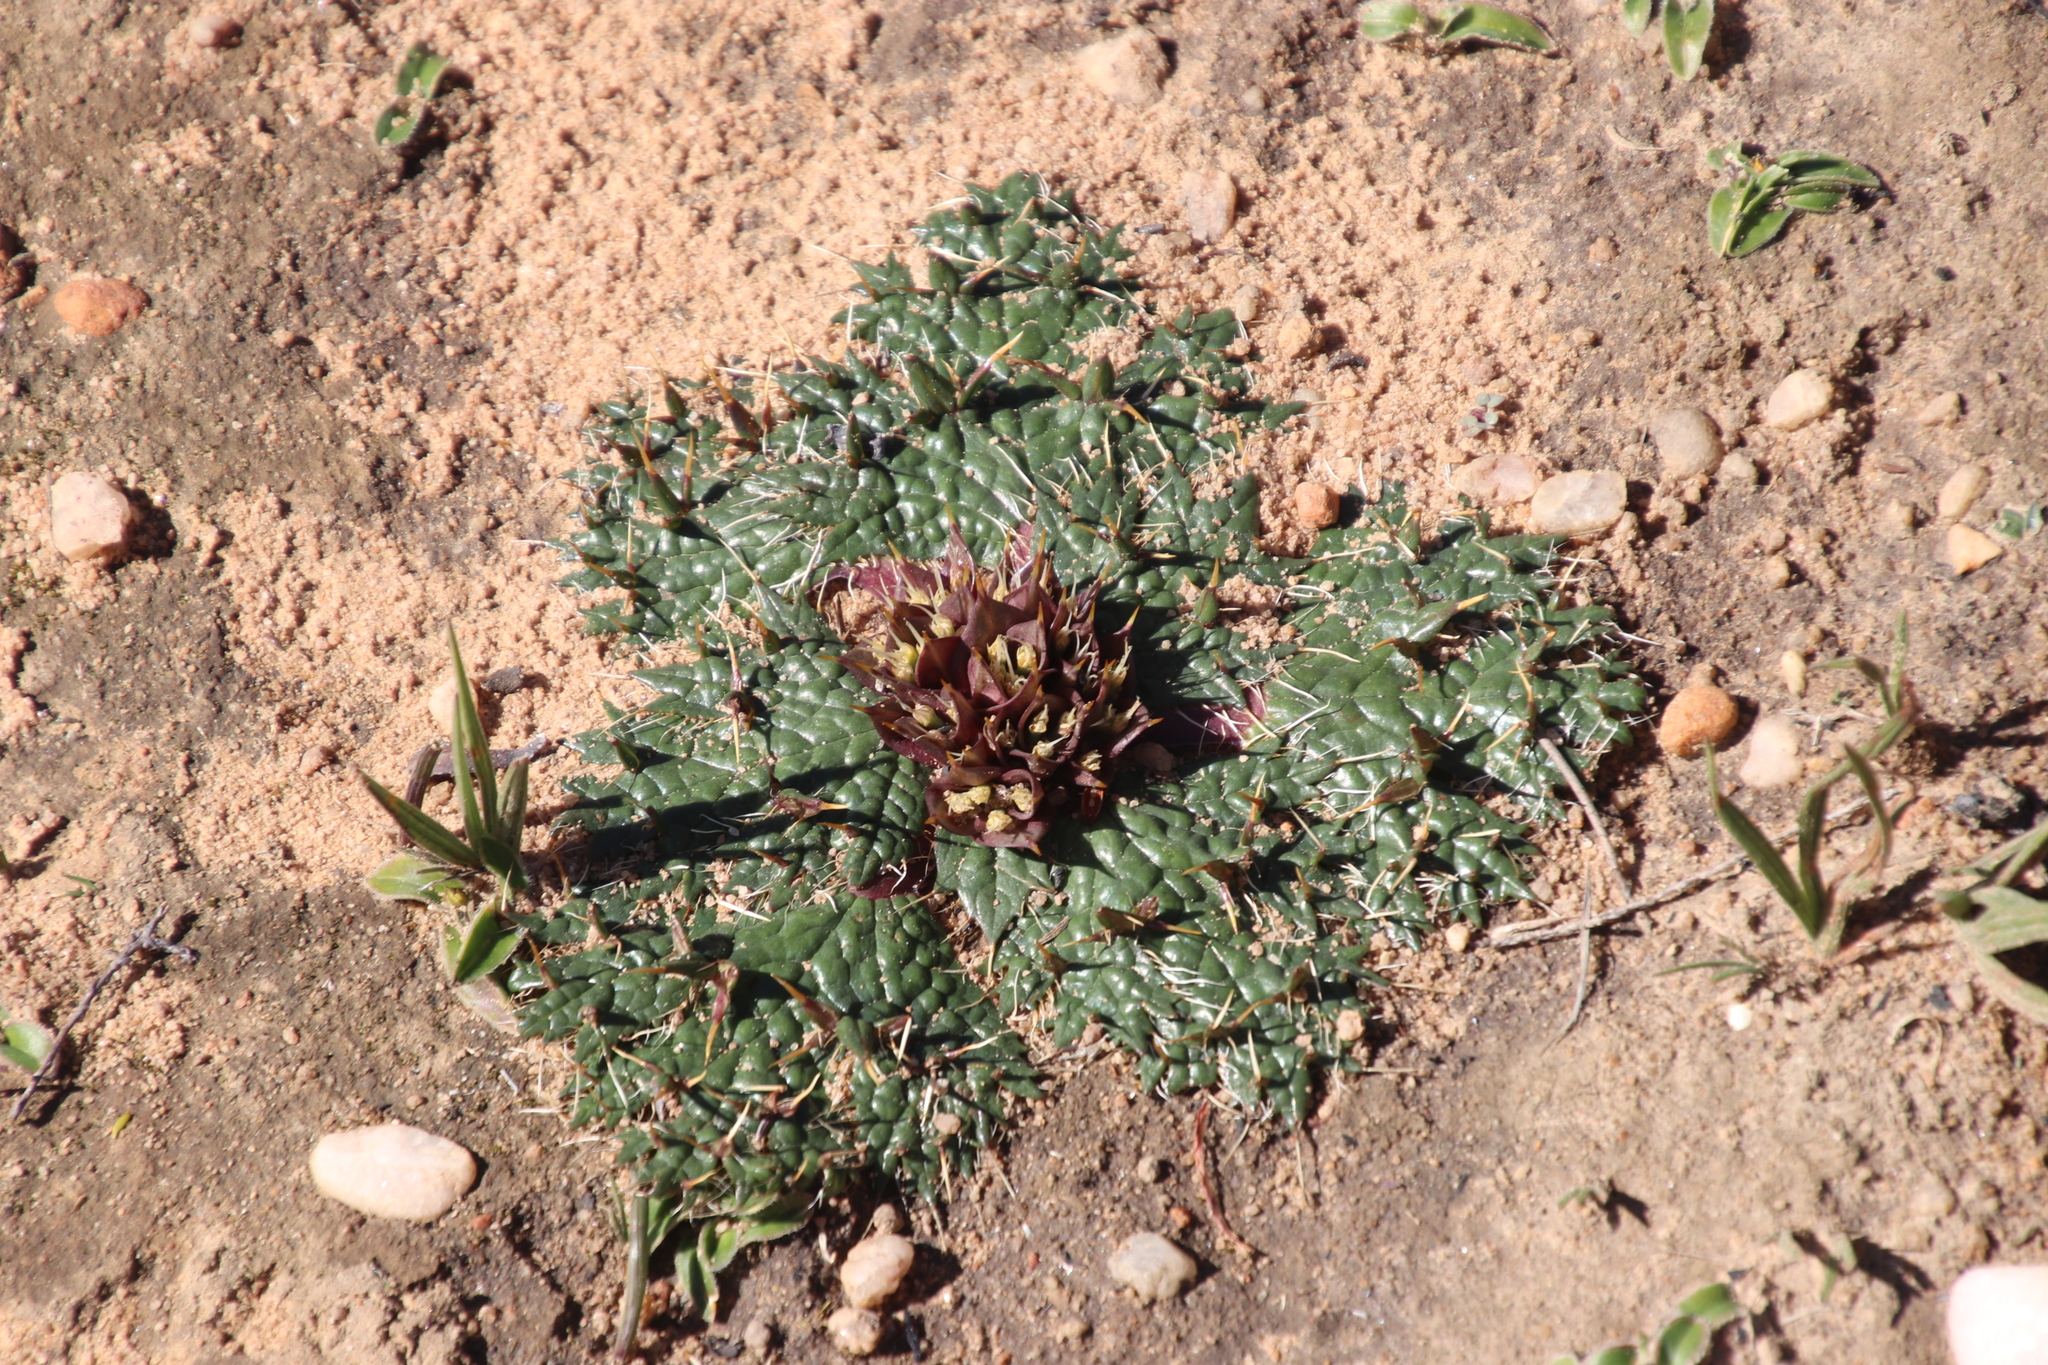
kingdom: Plantae
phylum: Tracheophyta
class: Magnoliopsida
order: Apiales
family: Apiaceae
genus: Arctopus
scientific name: Arctopus monacanthus
